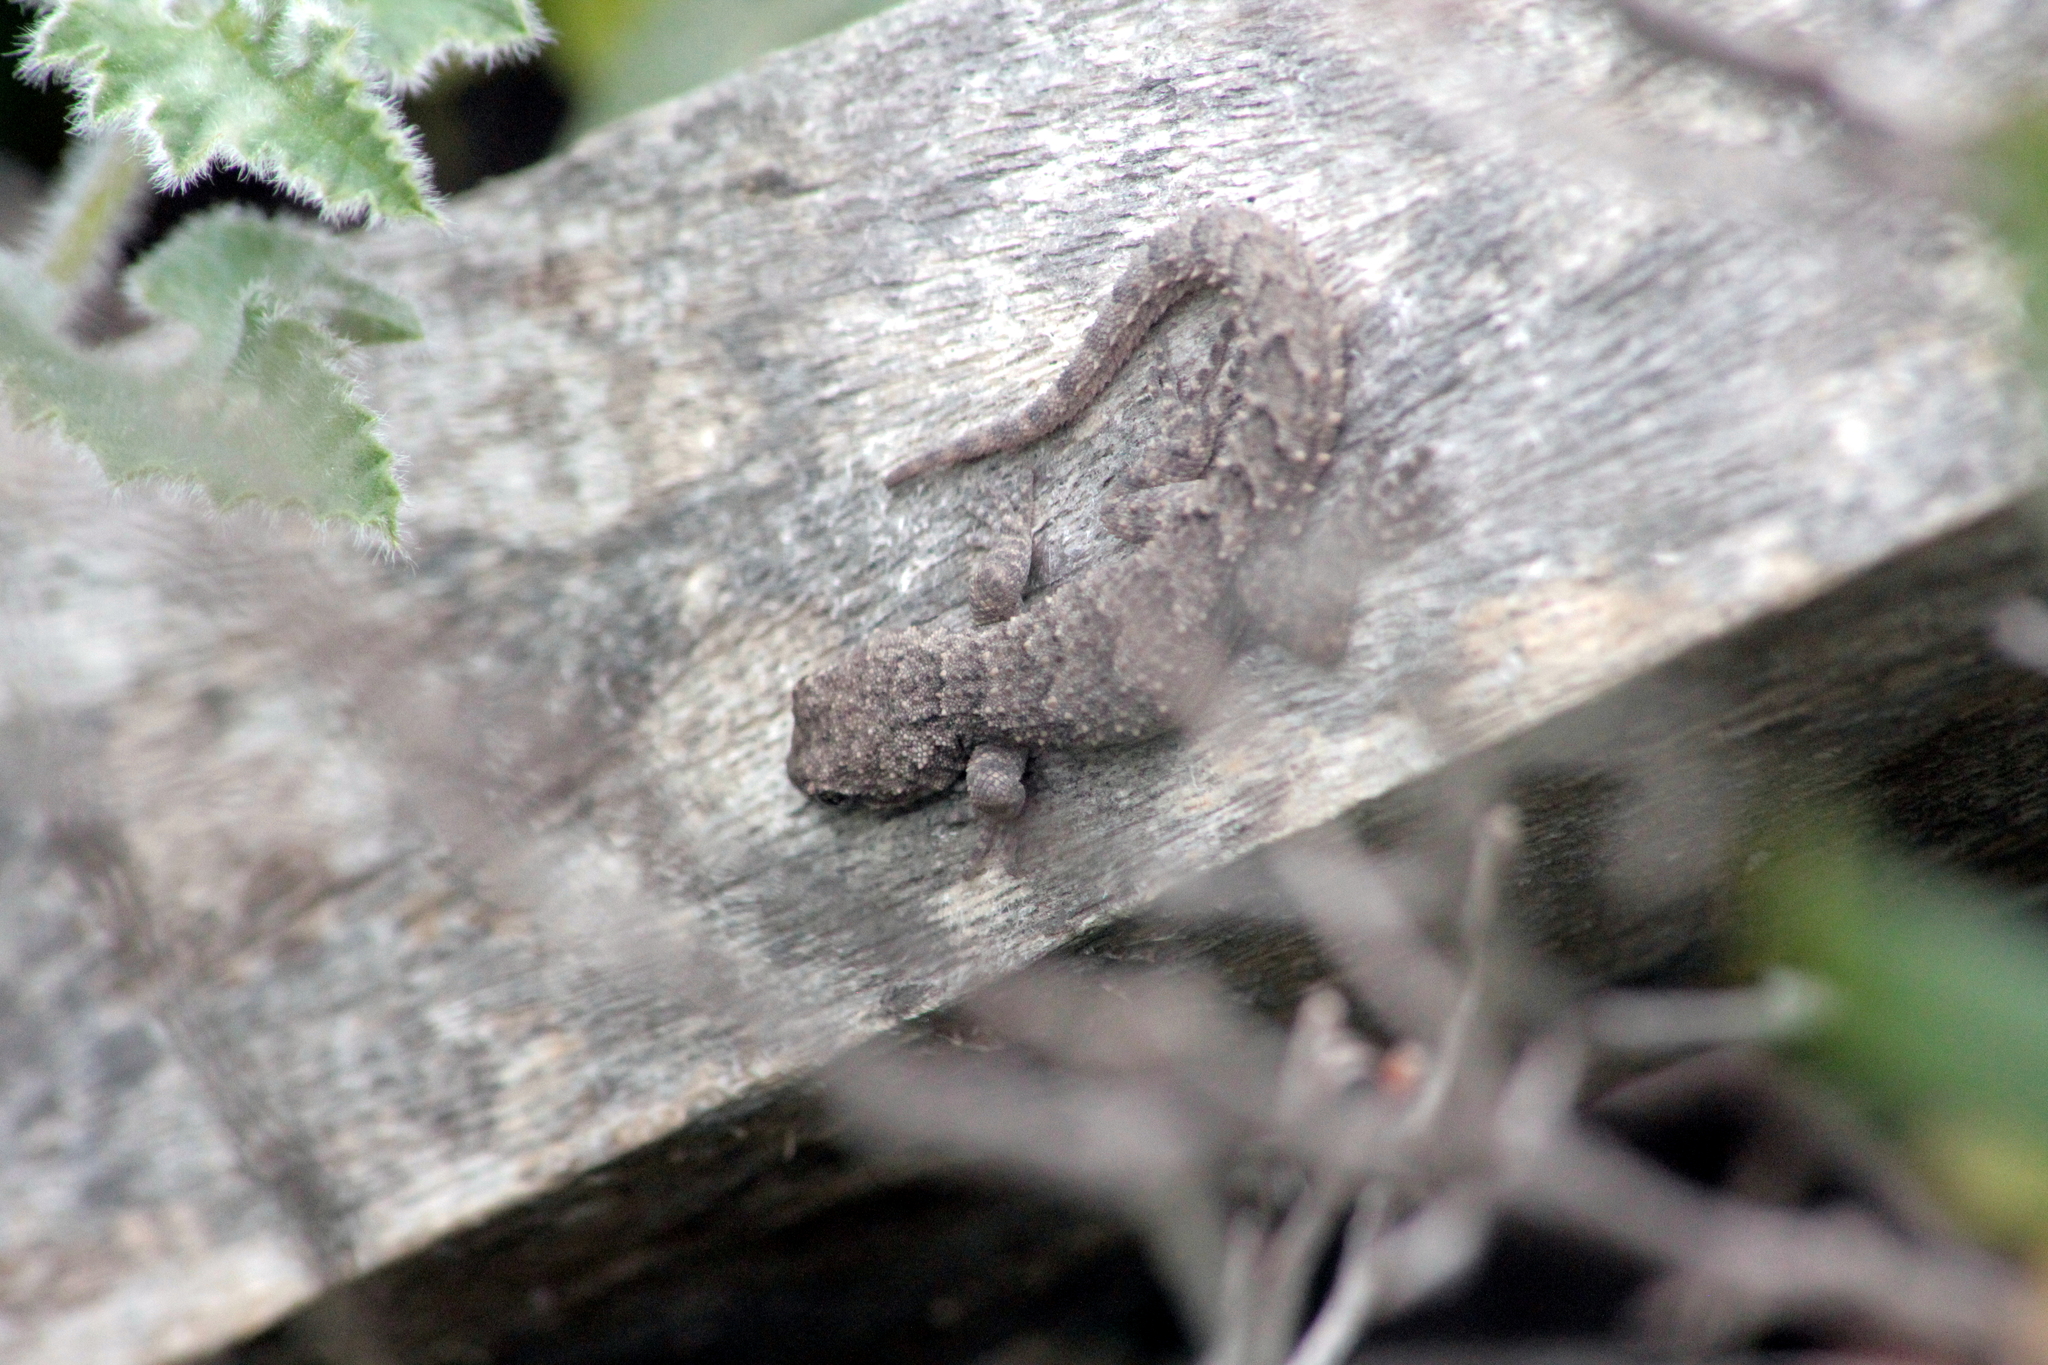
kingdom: Animalia
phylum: Chordata
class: Squamata
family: Gekkonidae
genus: Mediodactylus
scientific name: Mediodactylus orientalis
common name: Mediterranean thin-toed gecko
